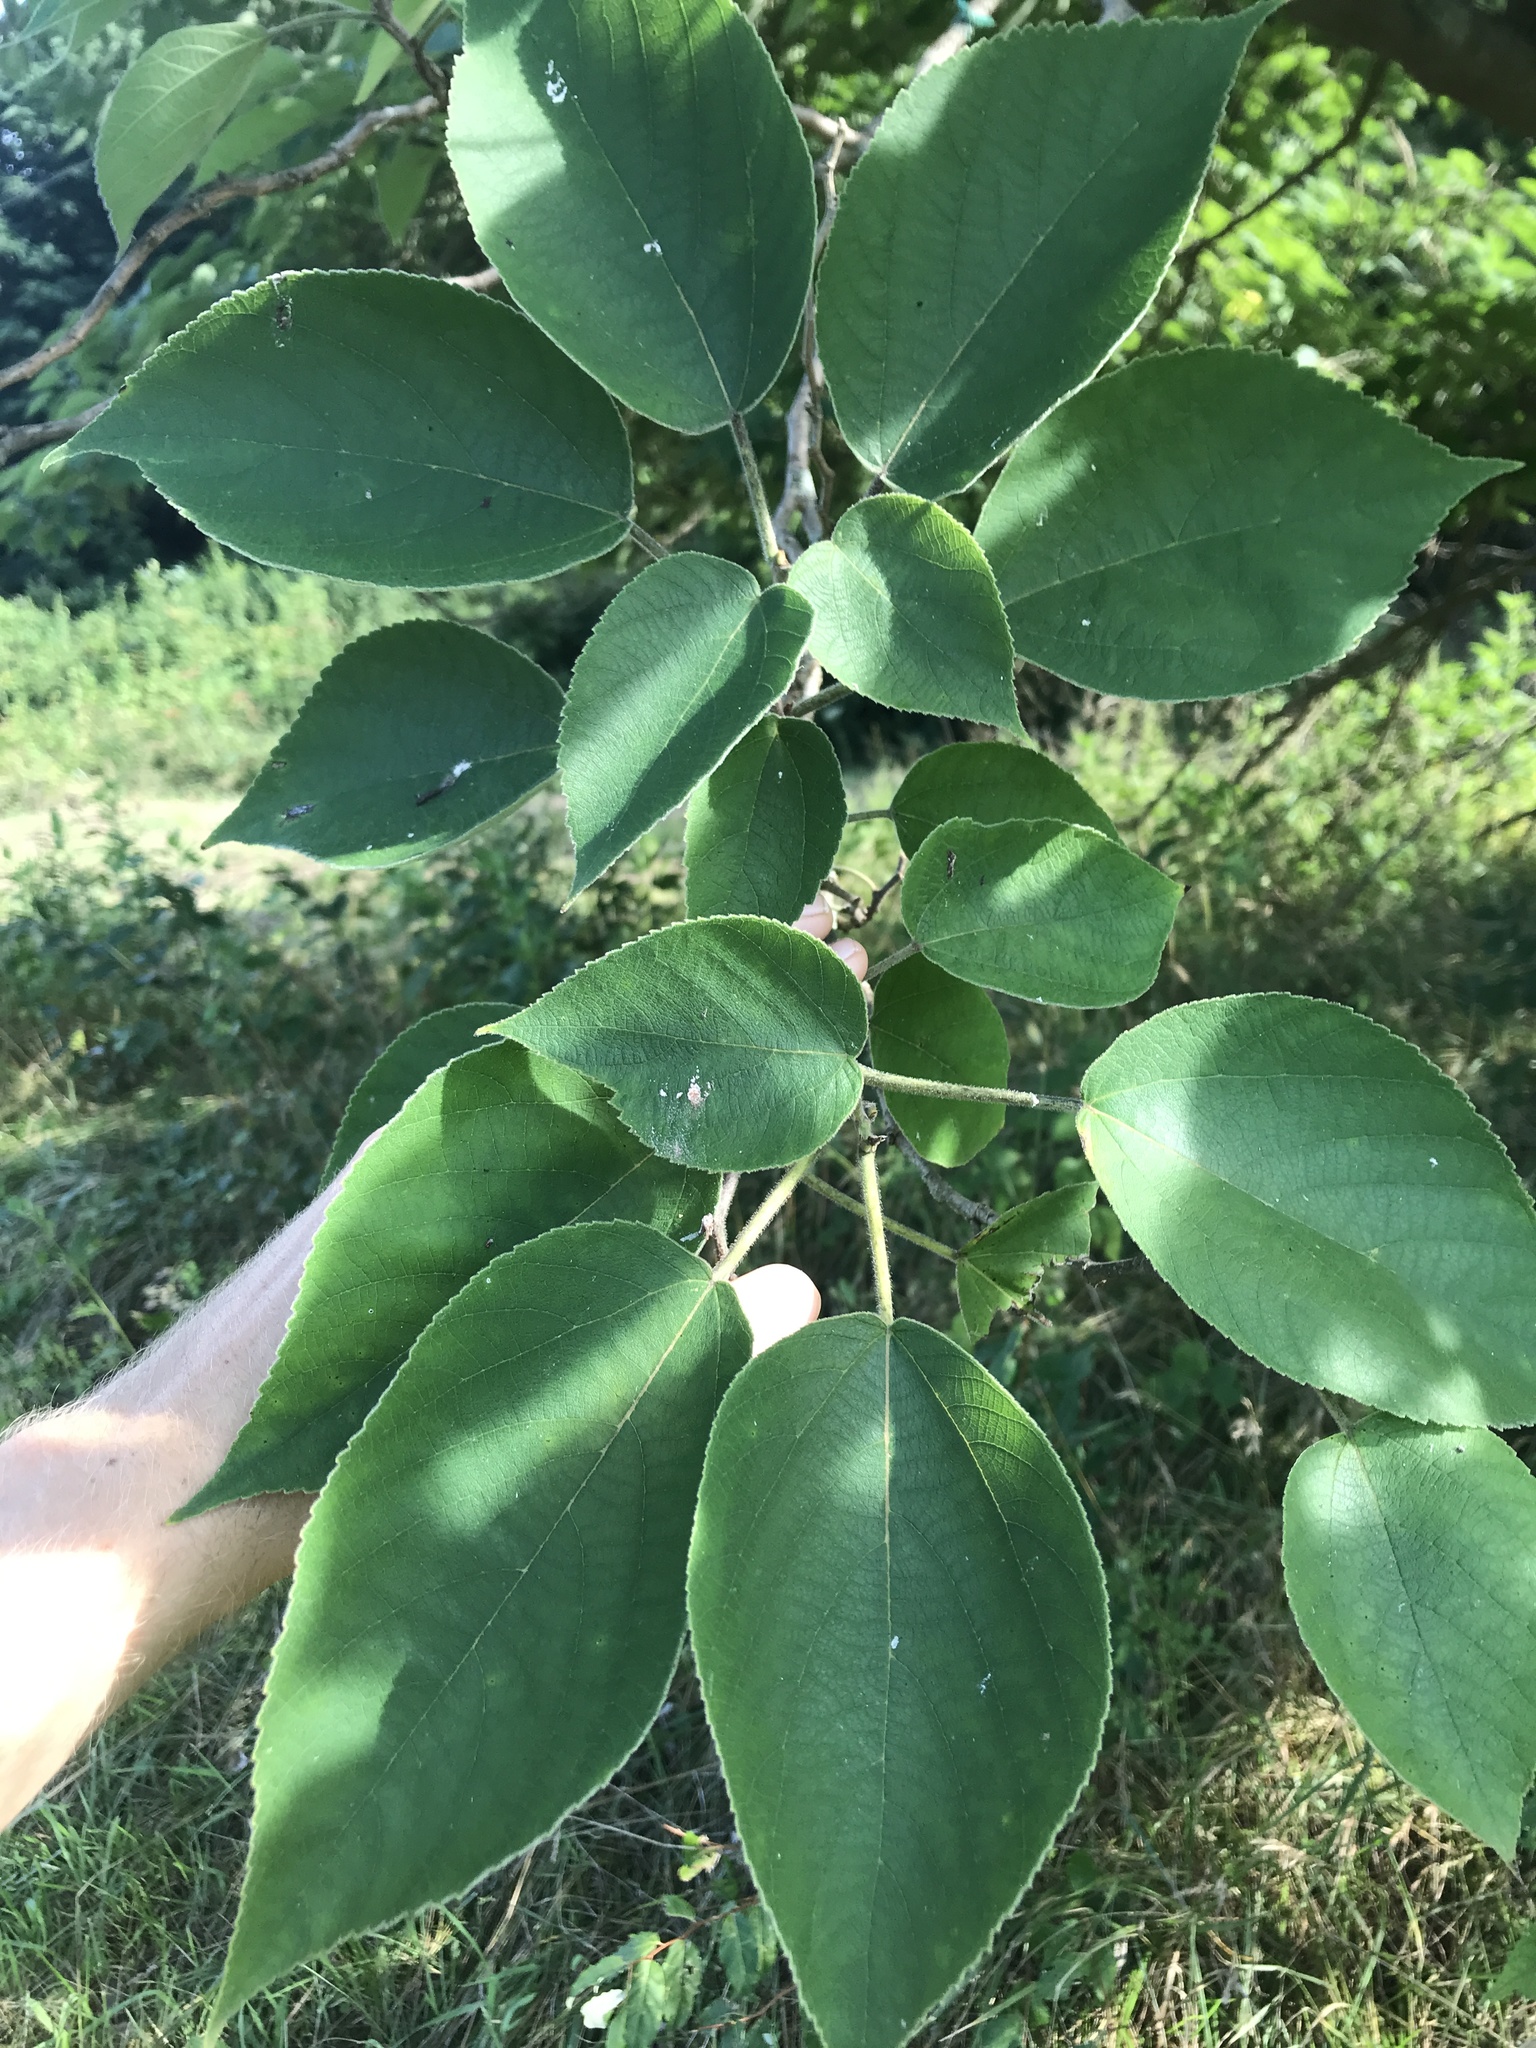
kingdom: Plantae
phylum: Tracheophyta
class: Magnoliopsida
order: Rosales
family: Moraceae
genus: Broussonetia
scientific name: Broussonetia papyrifera
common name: Paper mulberry
